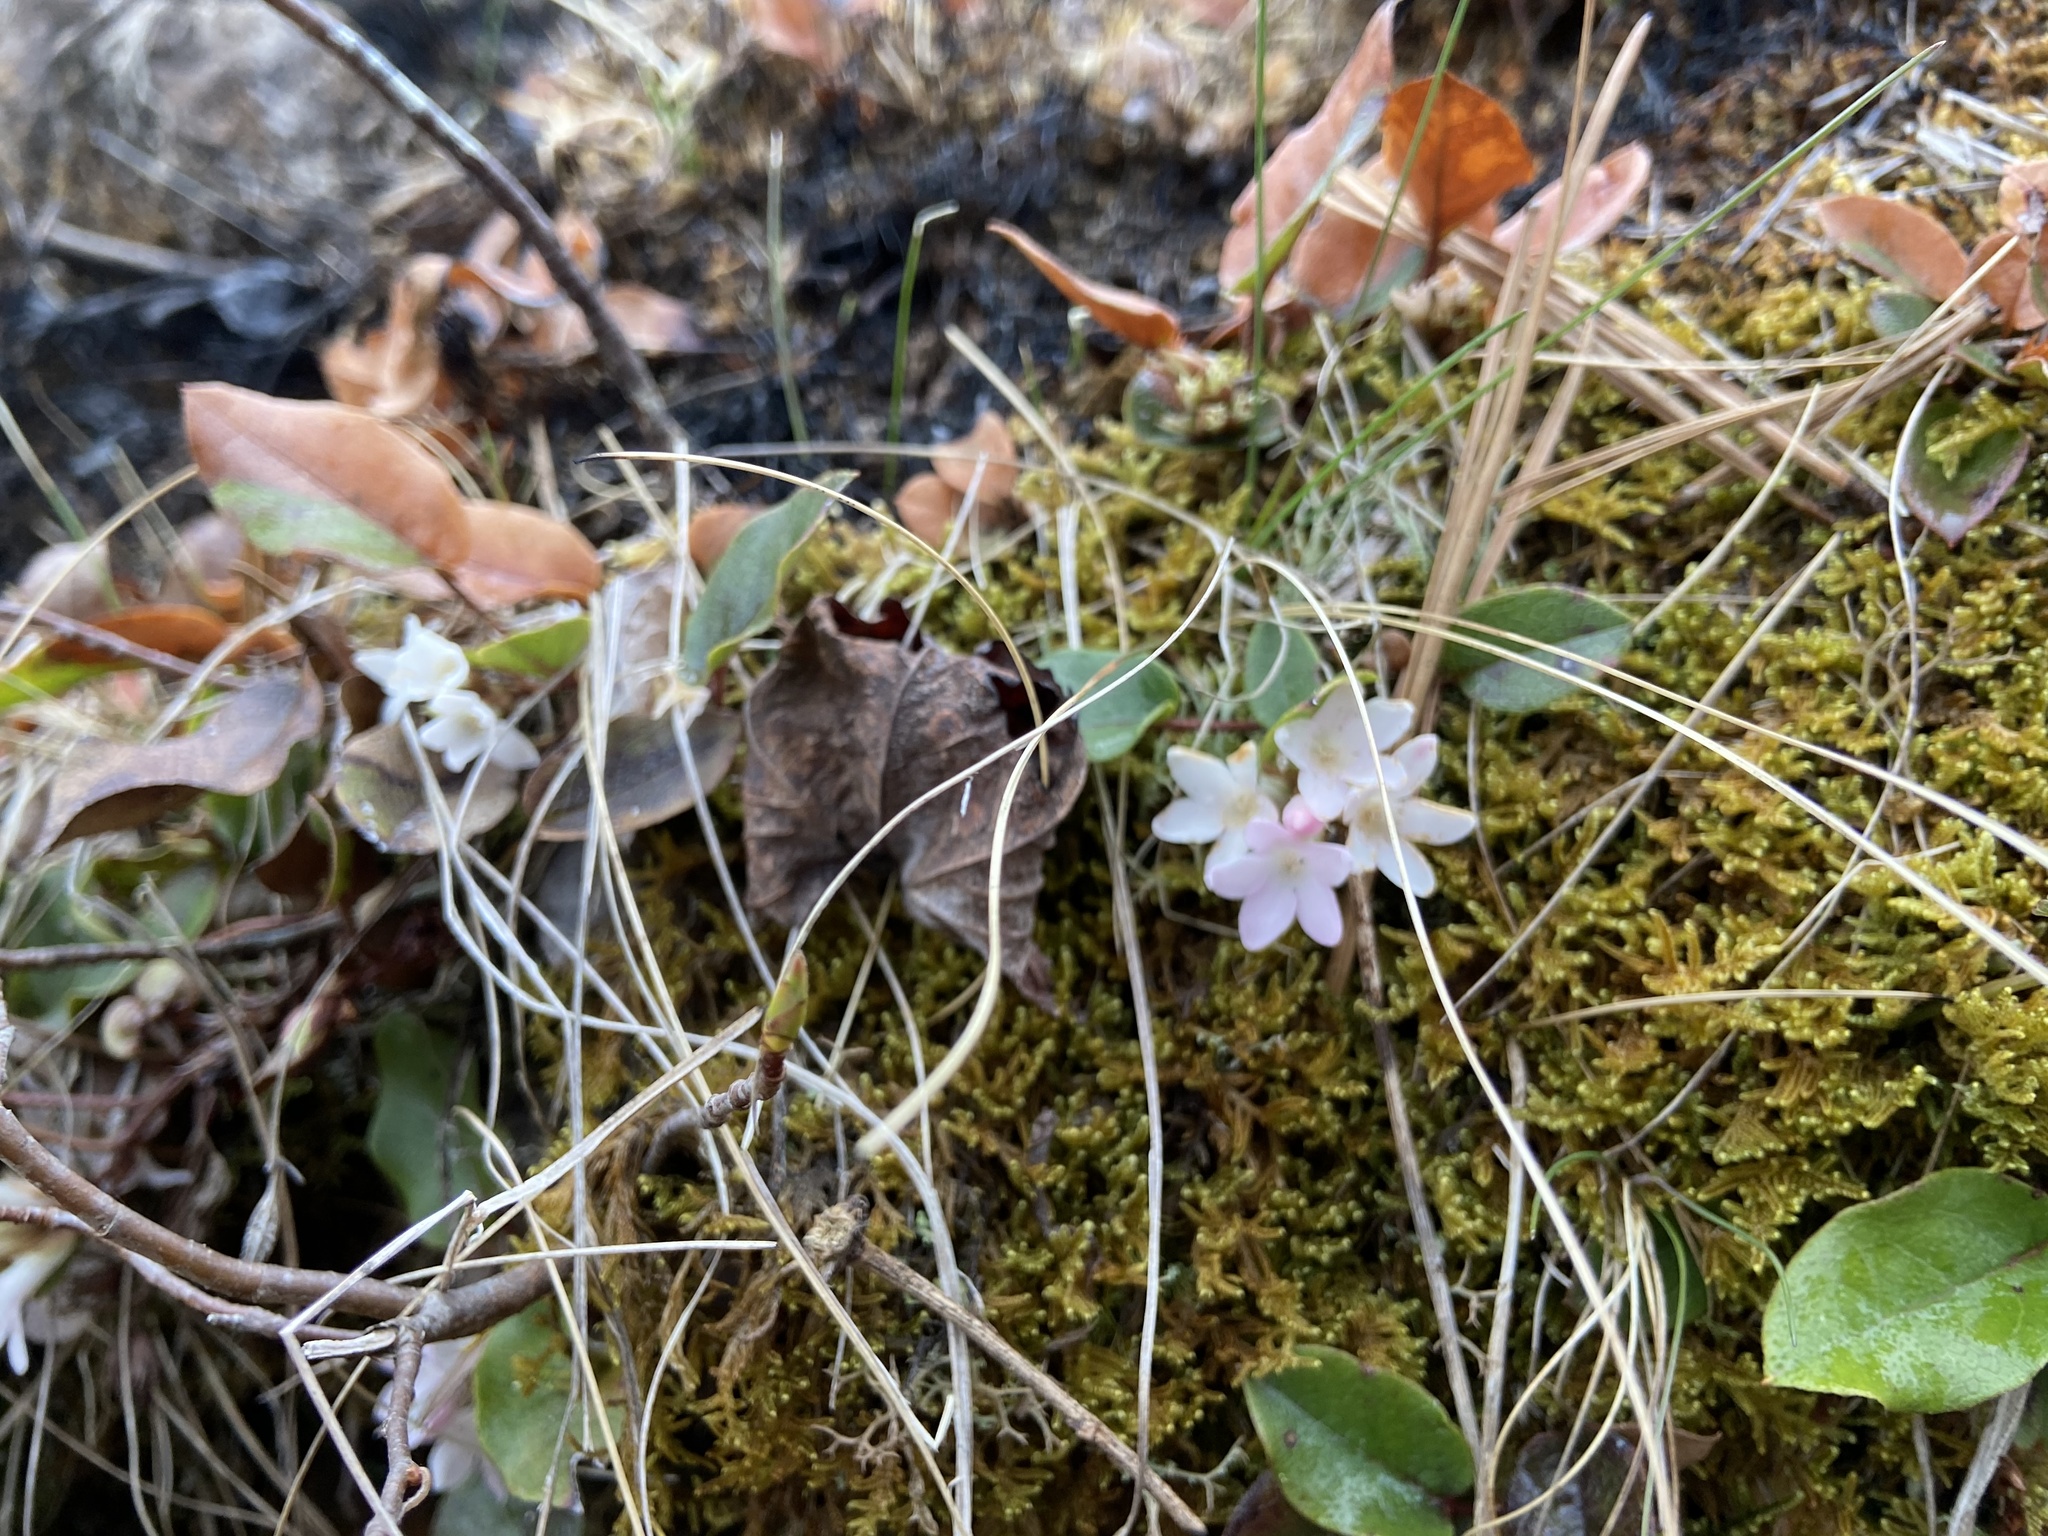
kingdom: Plantae
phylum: Tracheophyta
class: Magnoliopsida
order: Ericales
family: Ericaceae
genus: Epigaea
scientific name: Epigaea repens
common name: Gravelroot
